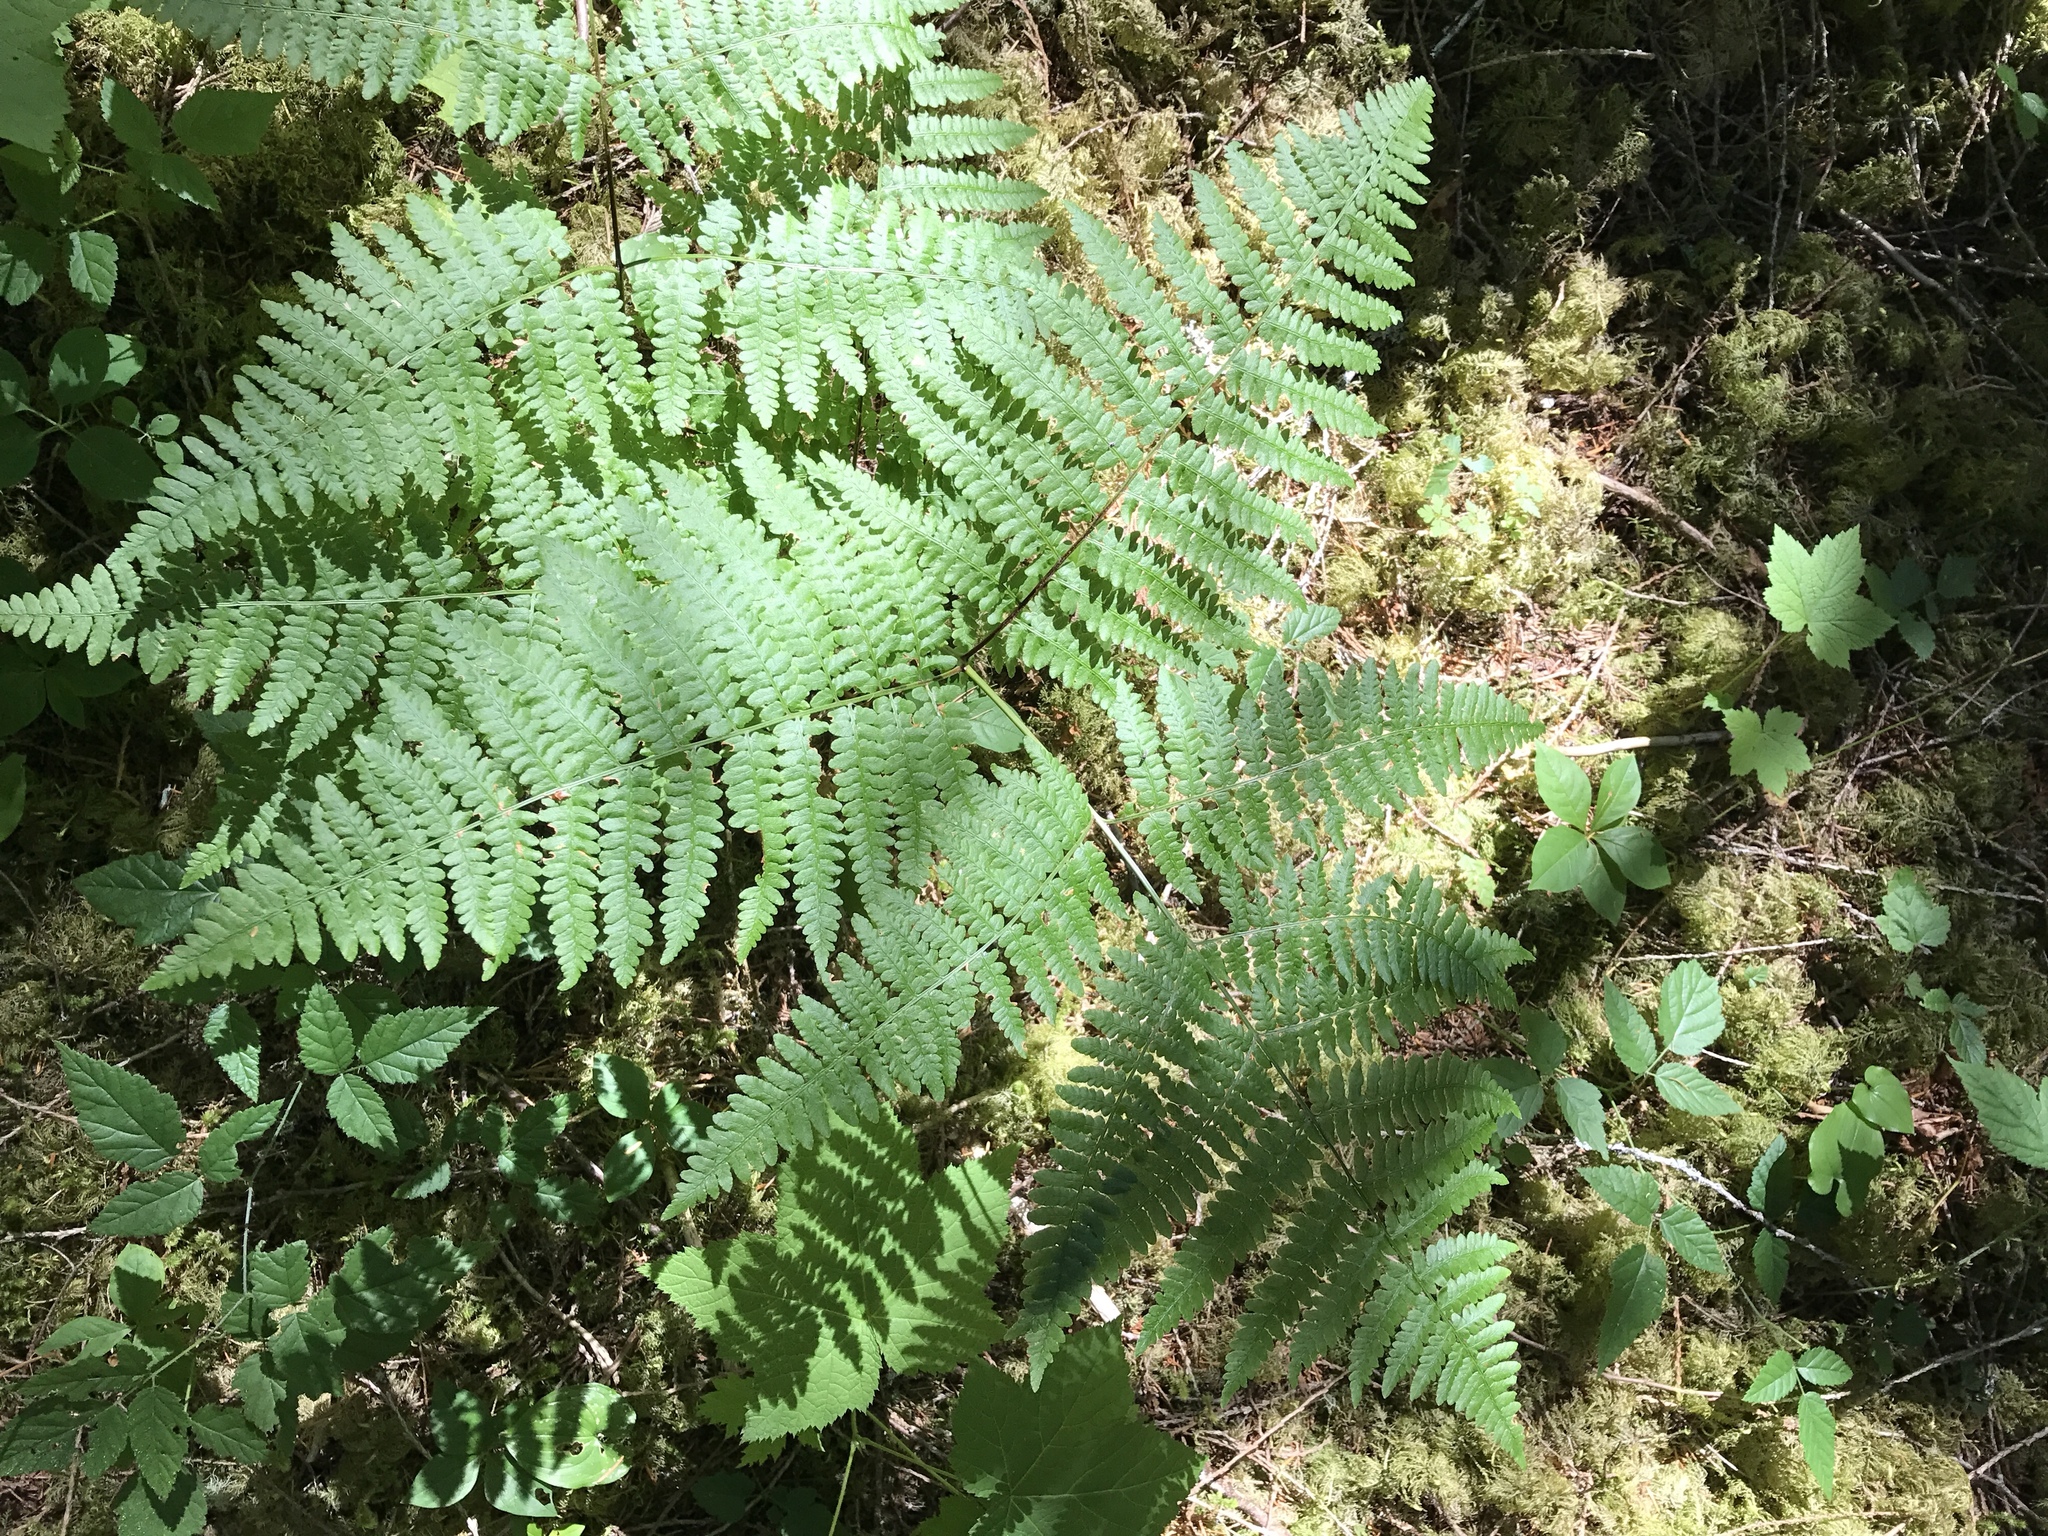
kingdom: Plantae
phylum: Tracheophyta
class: Polypodiopsida
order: Polypodiales
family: Dennstaedtiaceae
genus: Pteridium
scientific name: Pteridium aquilinum
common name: Bracken
